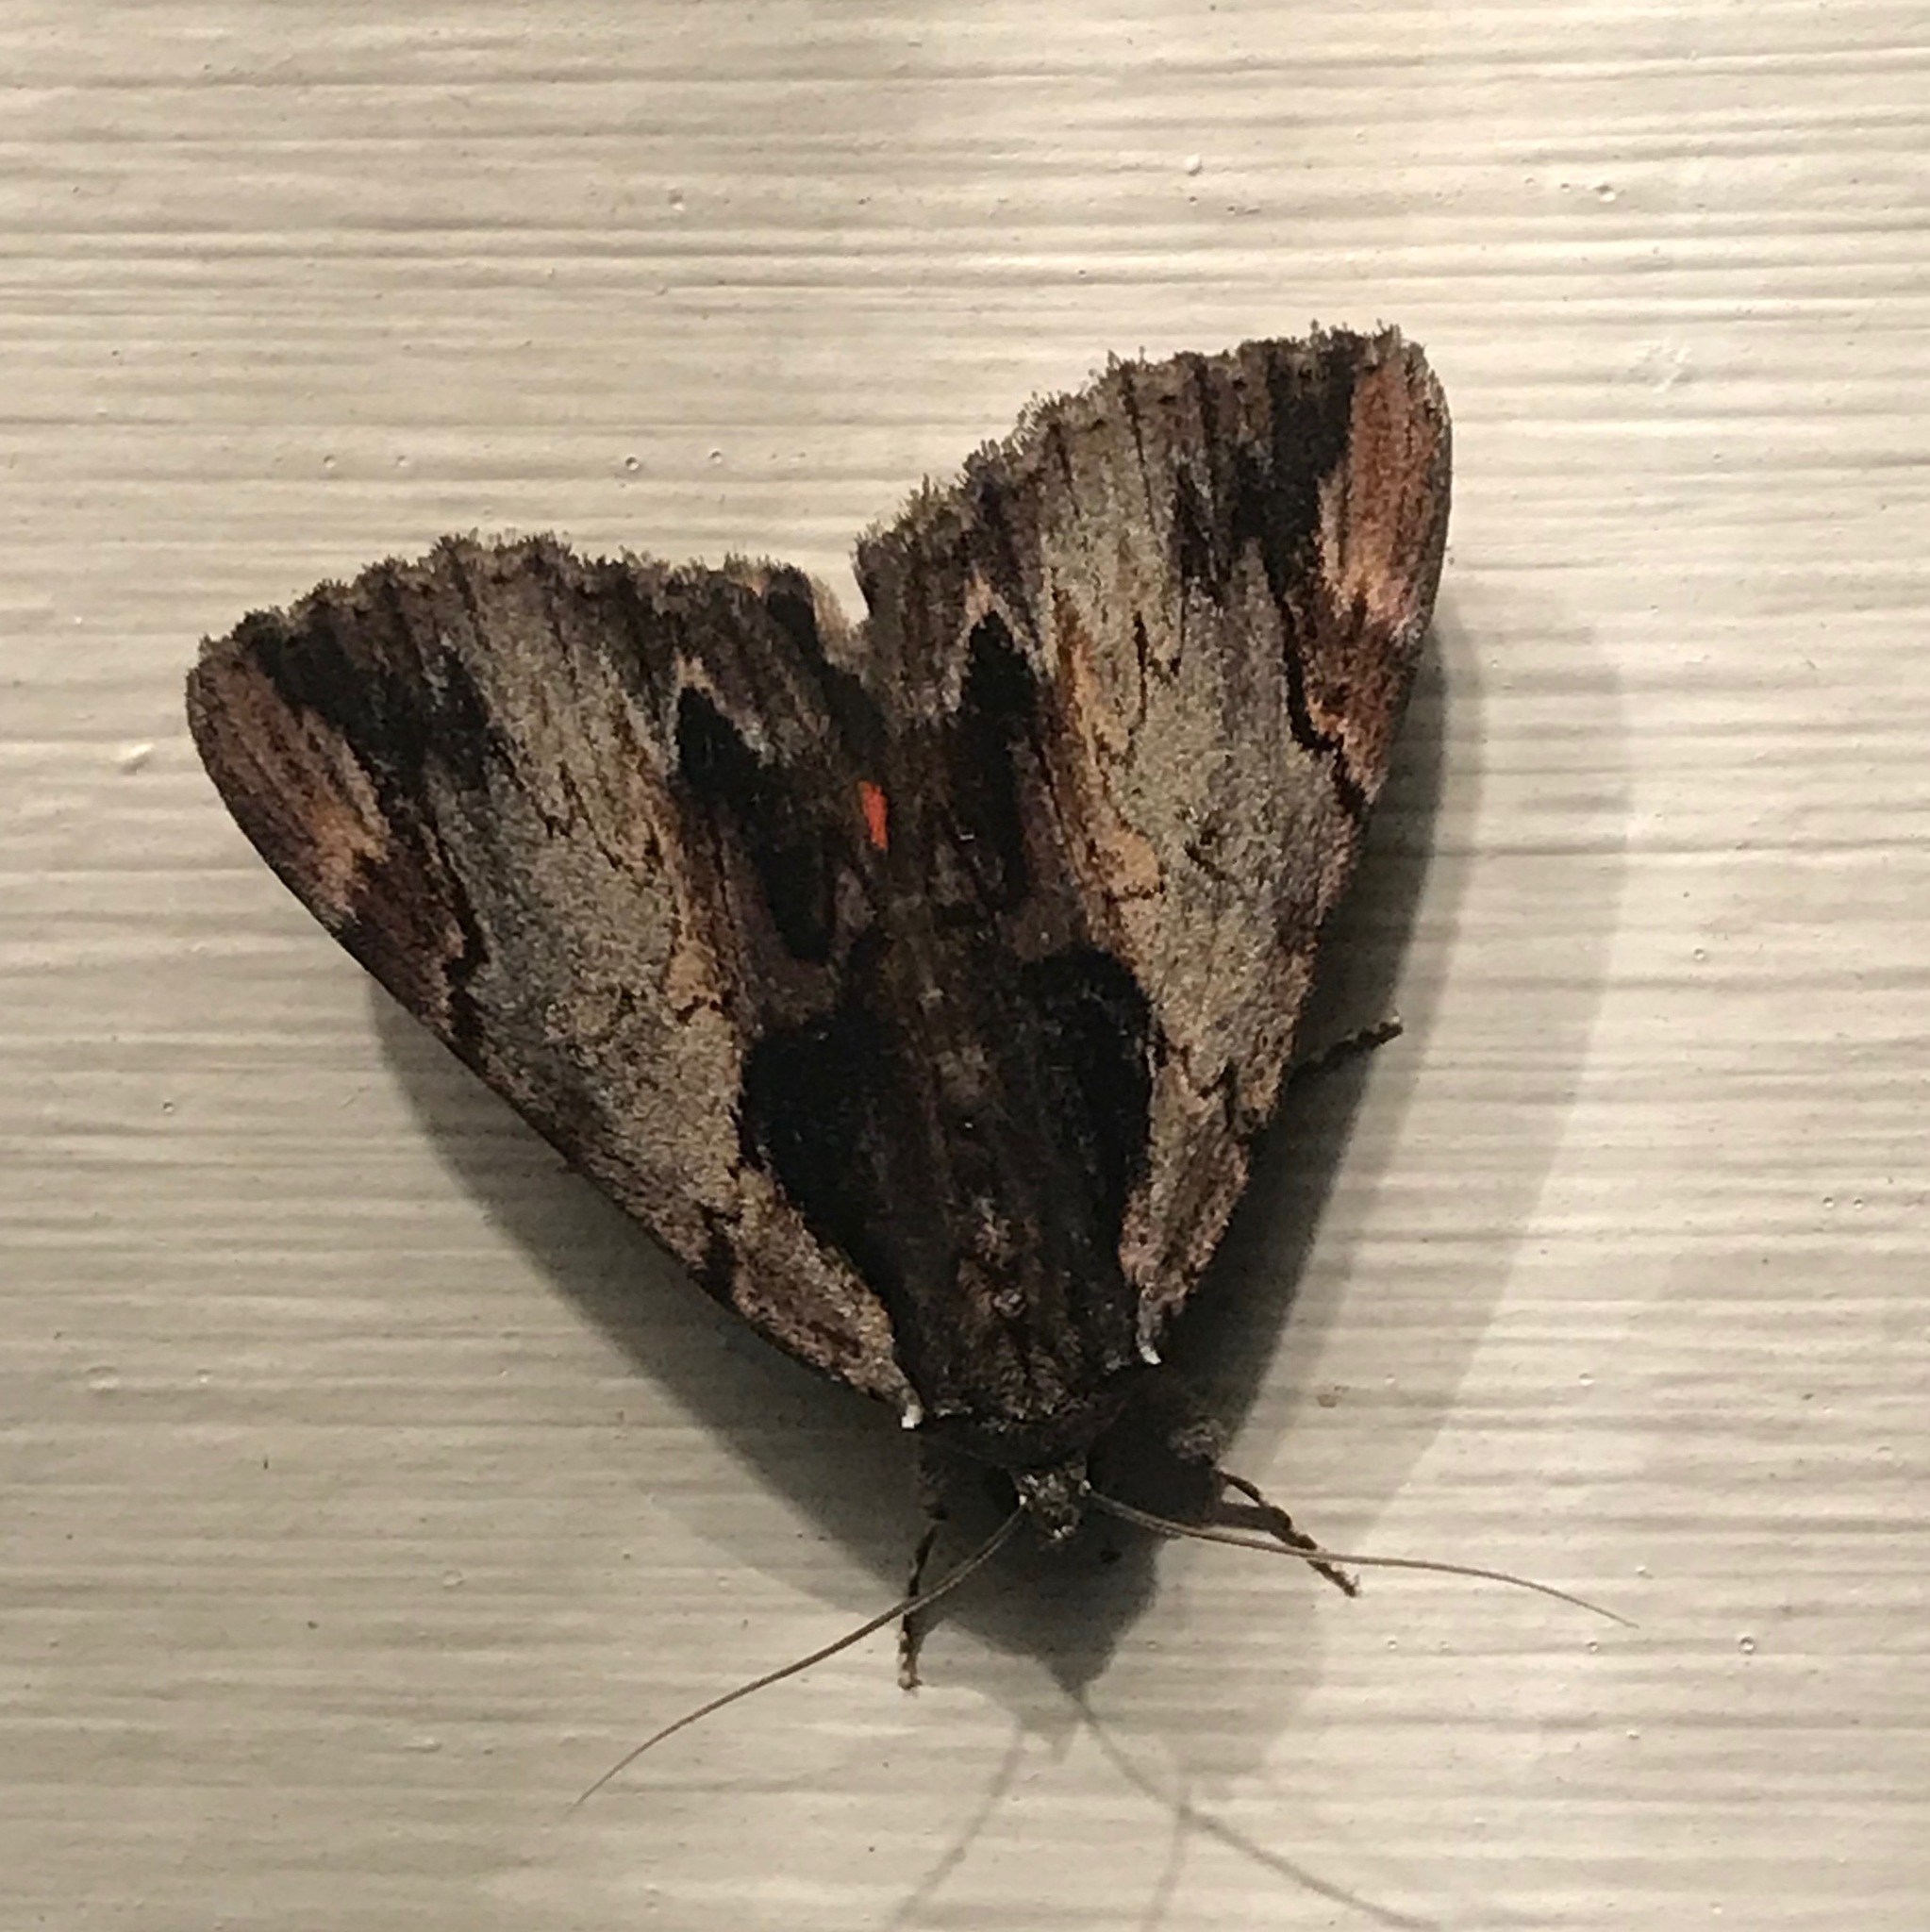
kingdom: Animalia
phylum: Arthropoda
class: Insecta
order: Lepidoptera
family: Erebidae
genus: Catocala
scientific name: Catocala ultronia
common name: Ultronia underwing
